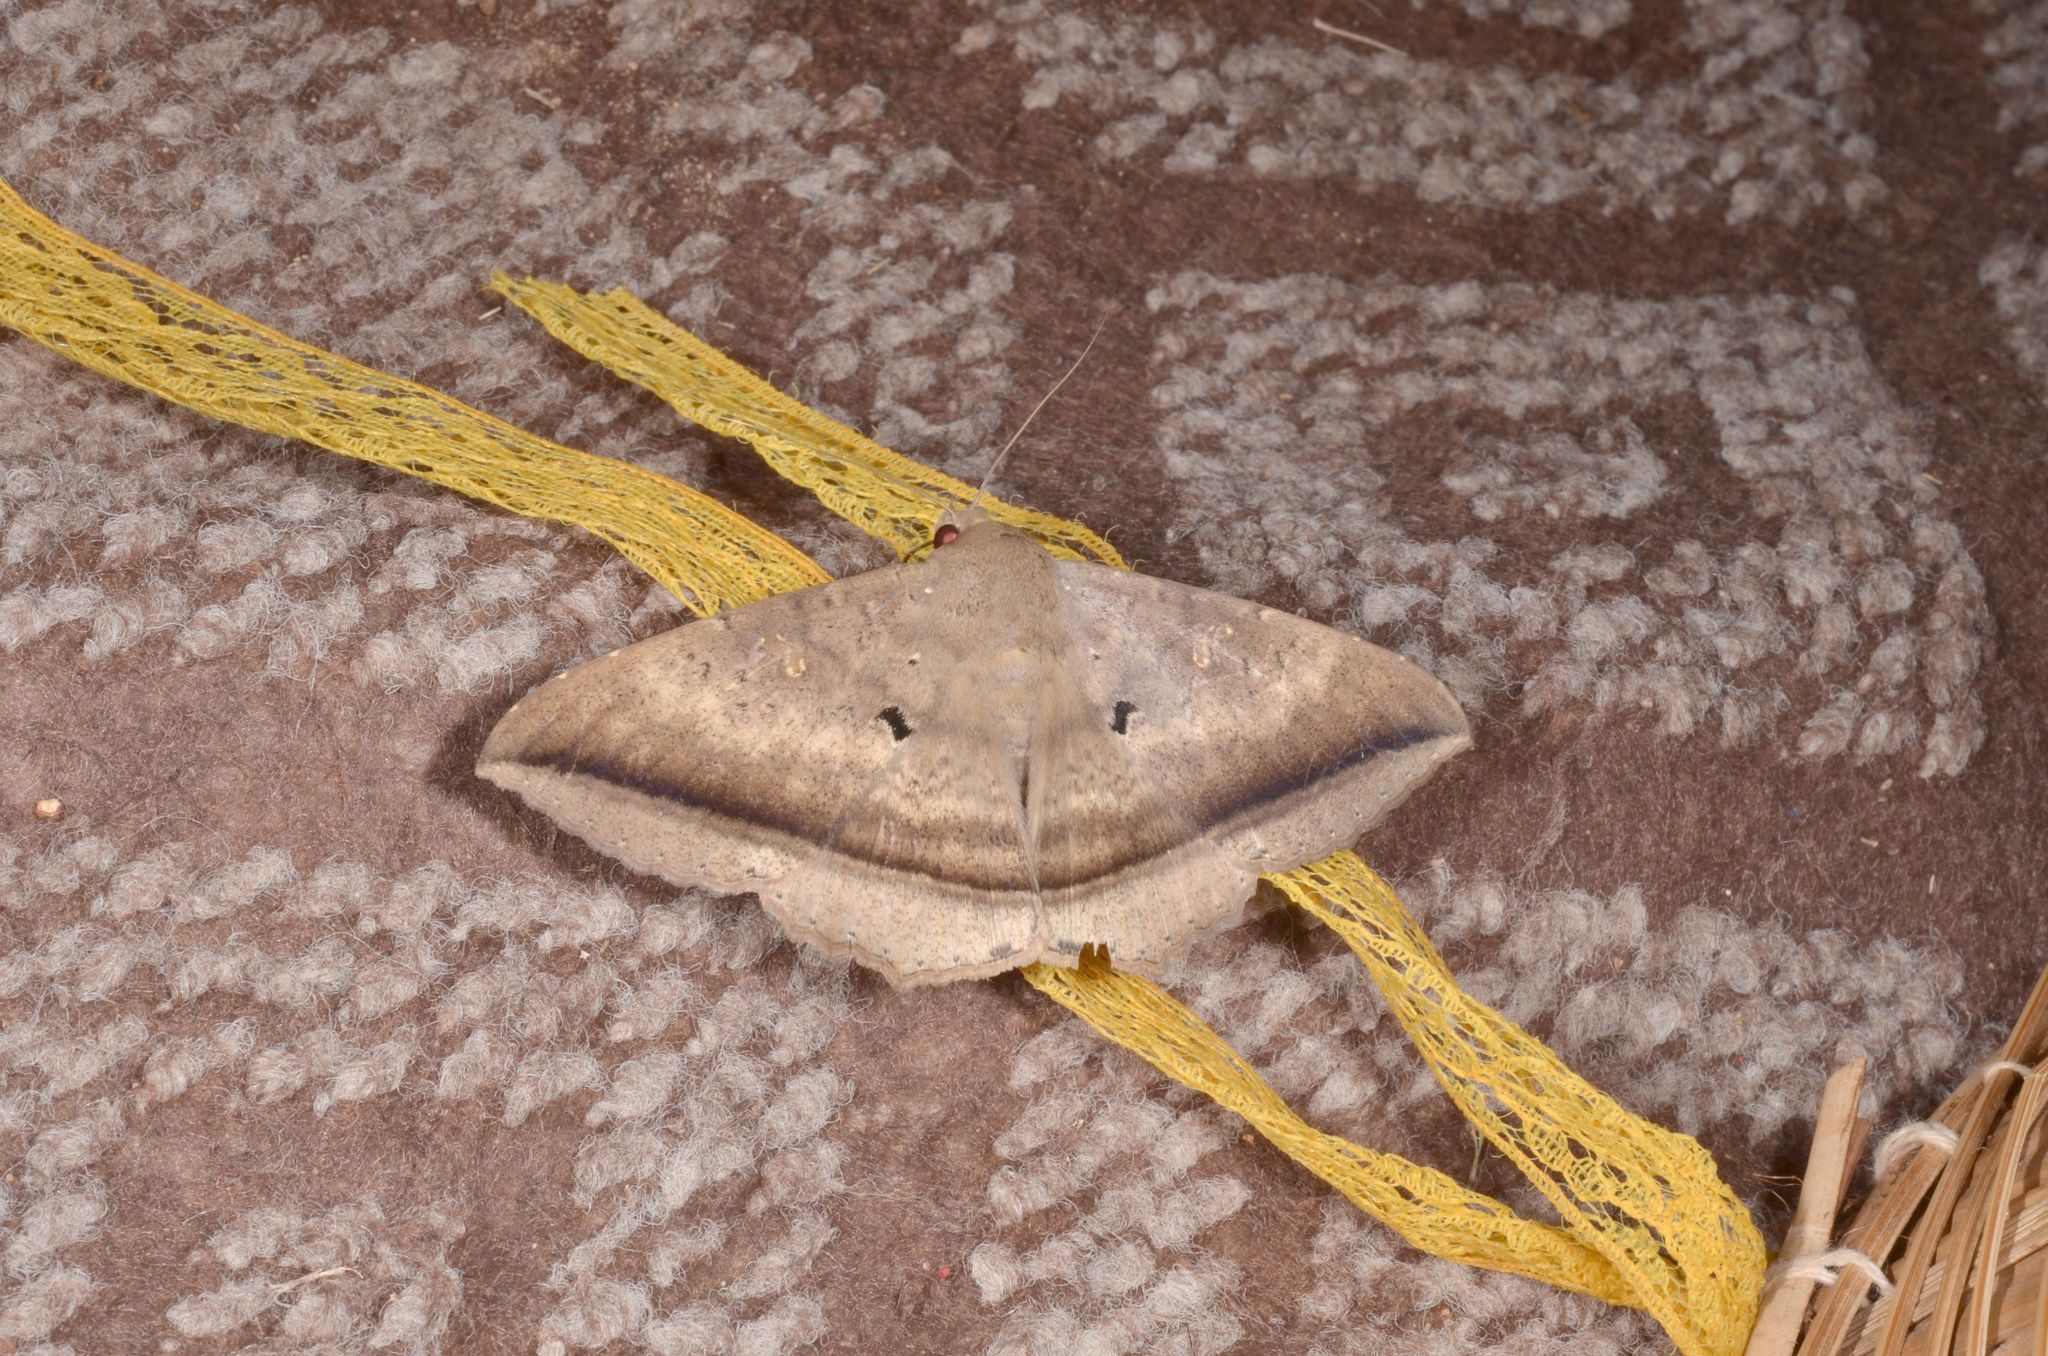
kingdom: Animalia
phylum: Arthropoda
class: Insecta
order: Lepidoptera
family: Erebidae
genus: Hulodes
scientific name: Hulodes caranea
